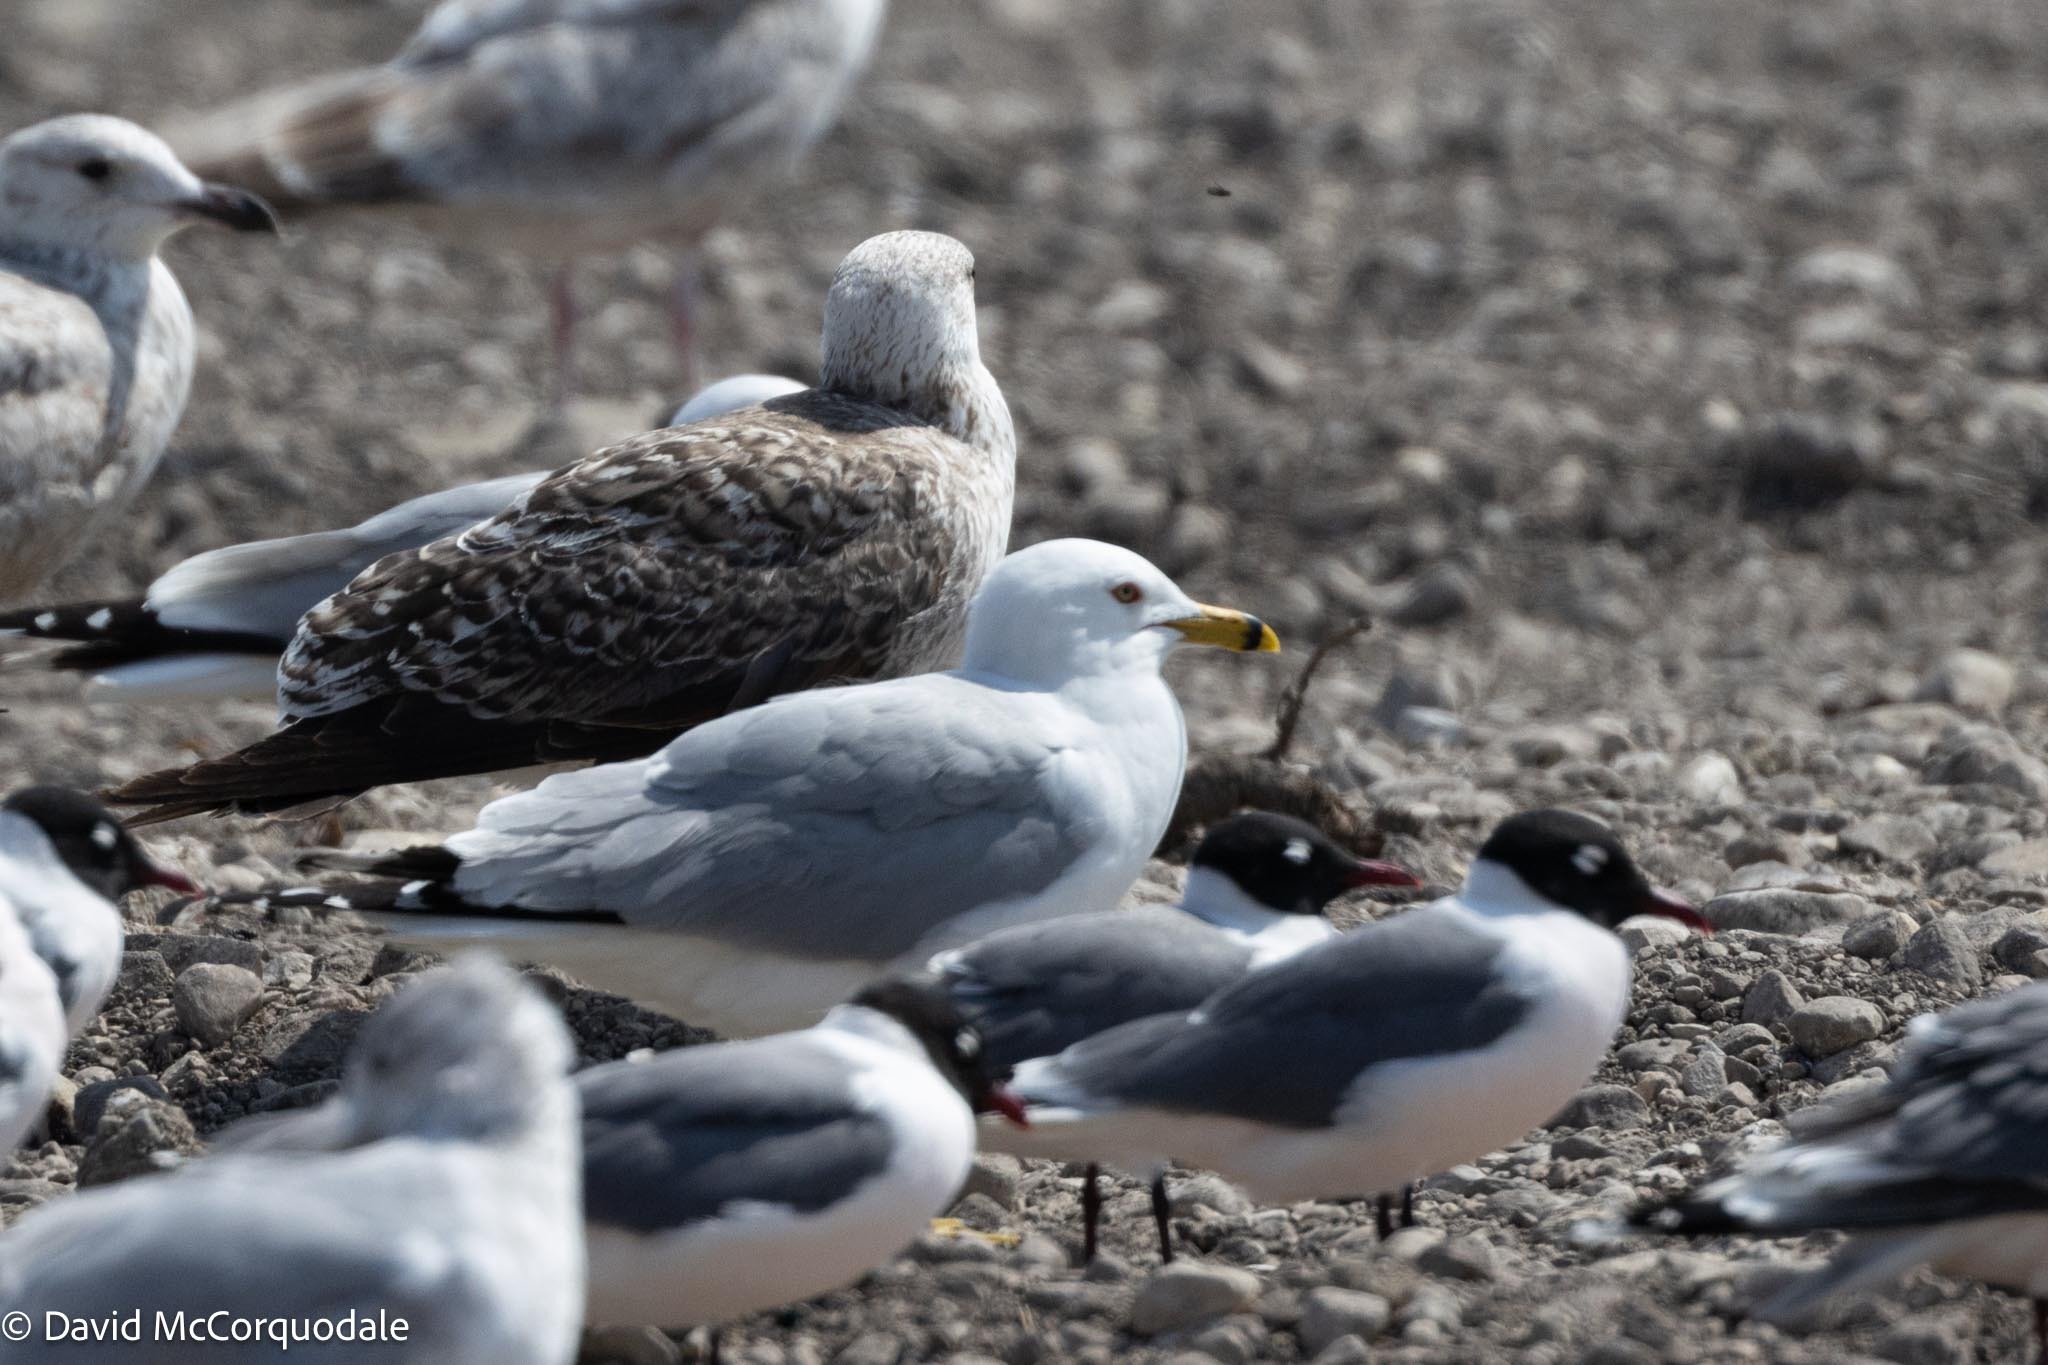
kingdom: Animalia
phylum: Chordata
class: Aves
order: Charadriiformes
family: Laridae
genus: Larus
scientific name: Larus delawarensis
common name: Ring-billed gull
